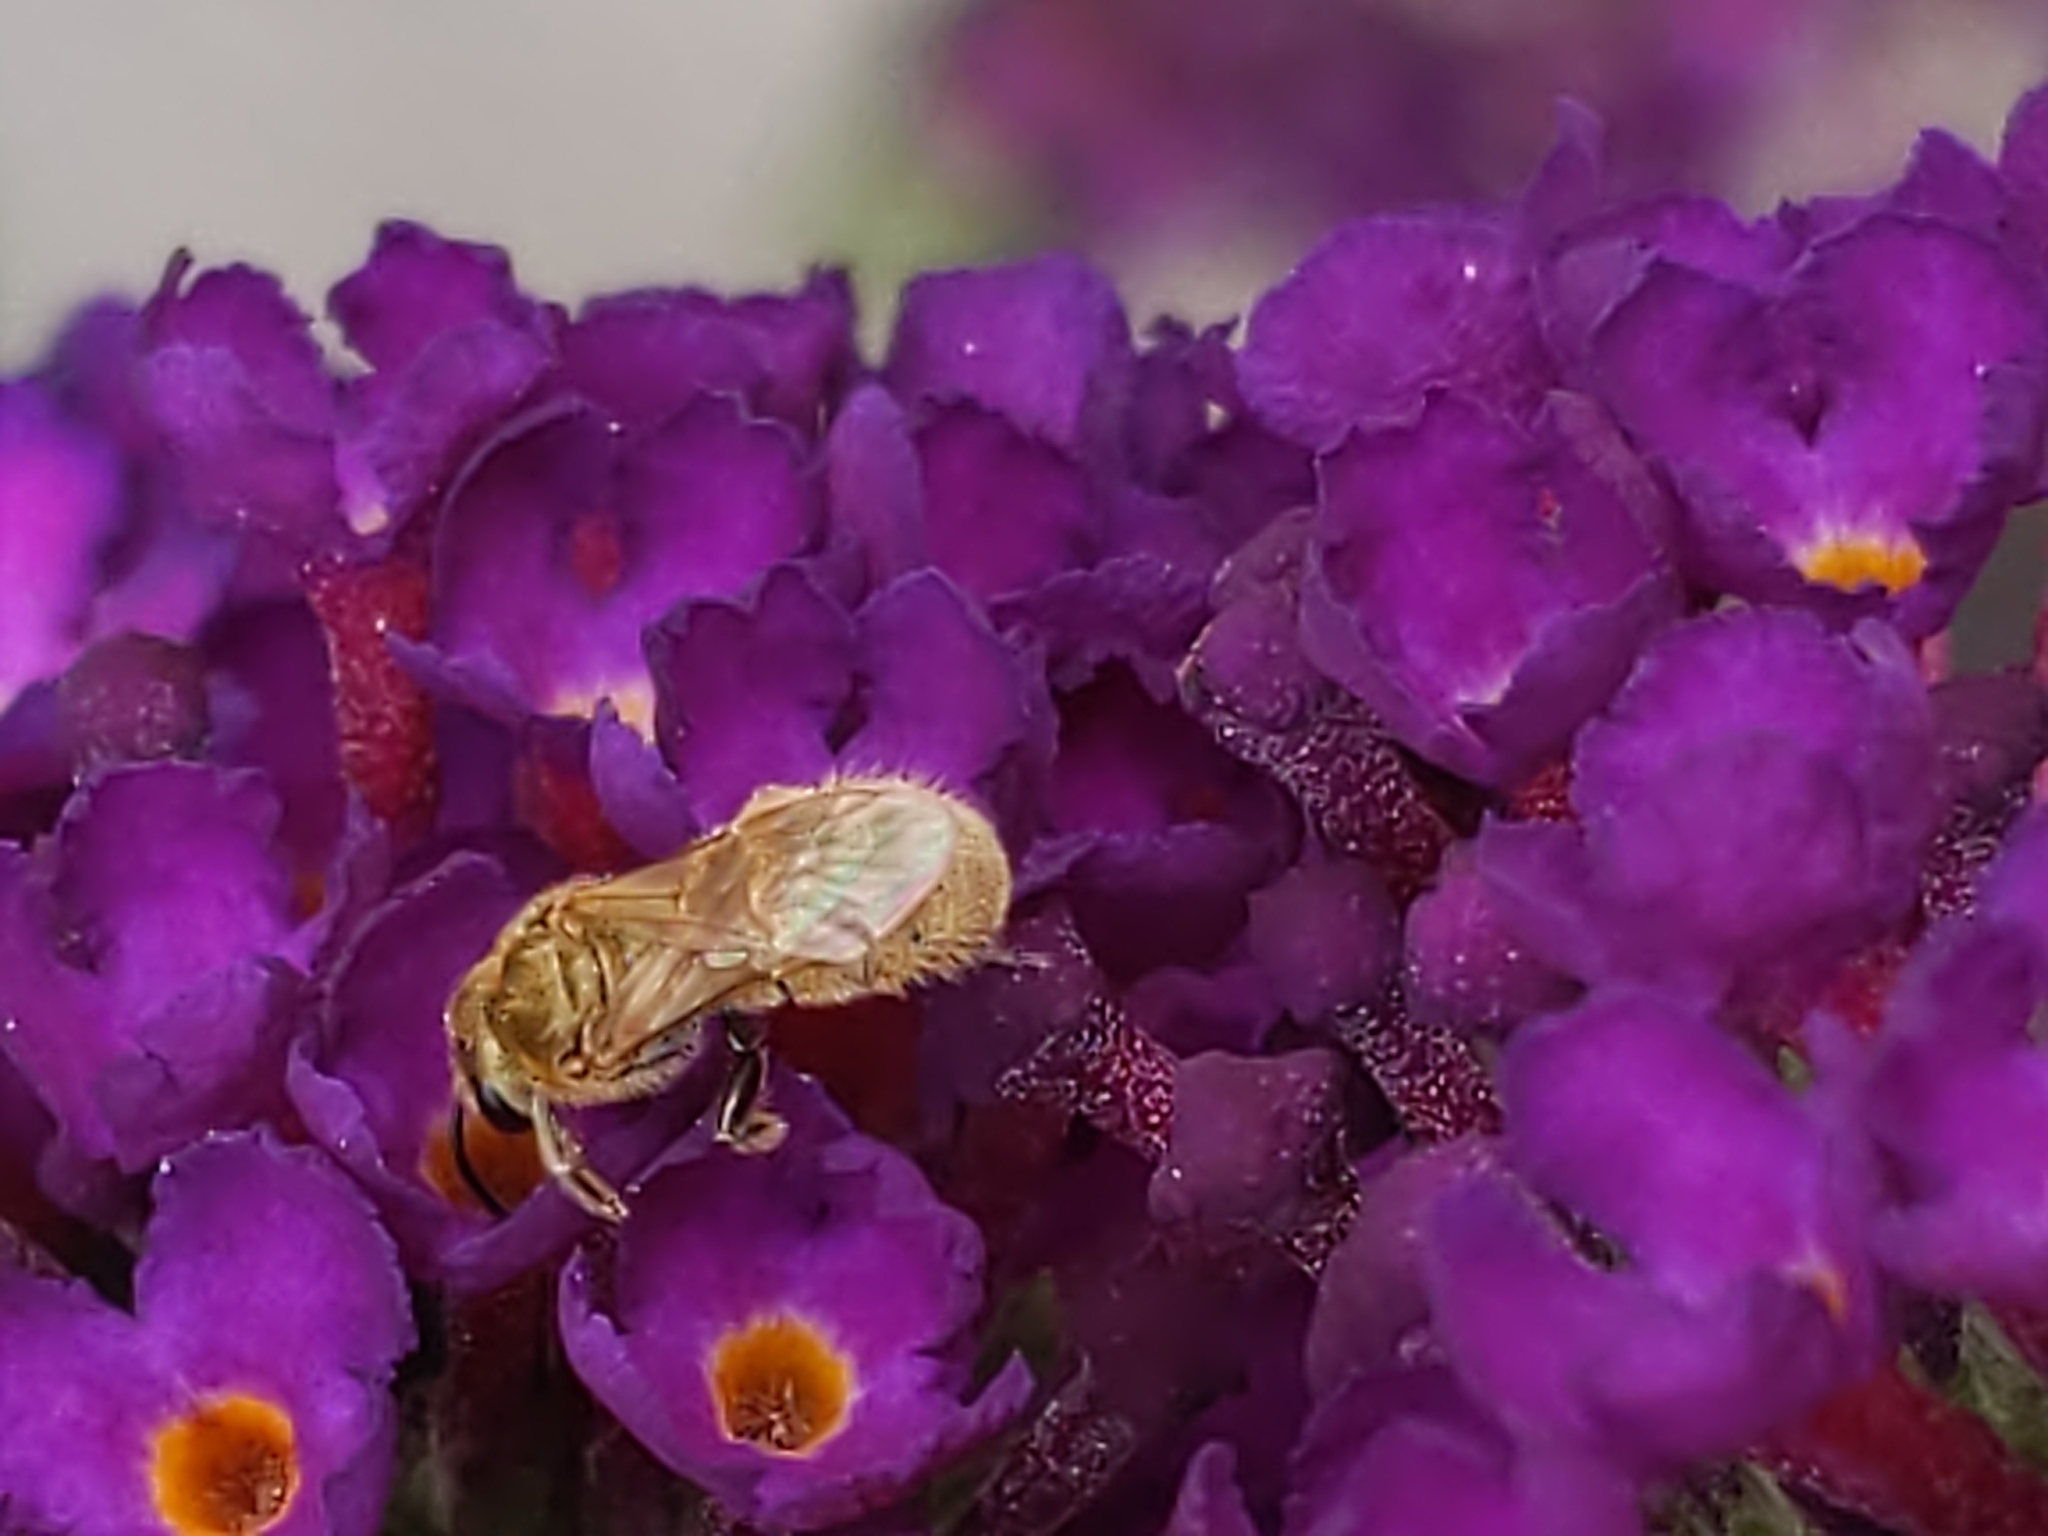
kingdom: Animalia
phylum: Arthropoda
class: Insecta
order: Hymenoptera
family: Halictidae
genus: Lasioglossum
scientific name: Lasioglossum
